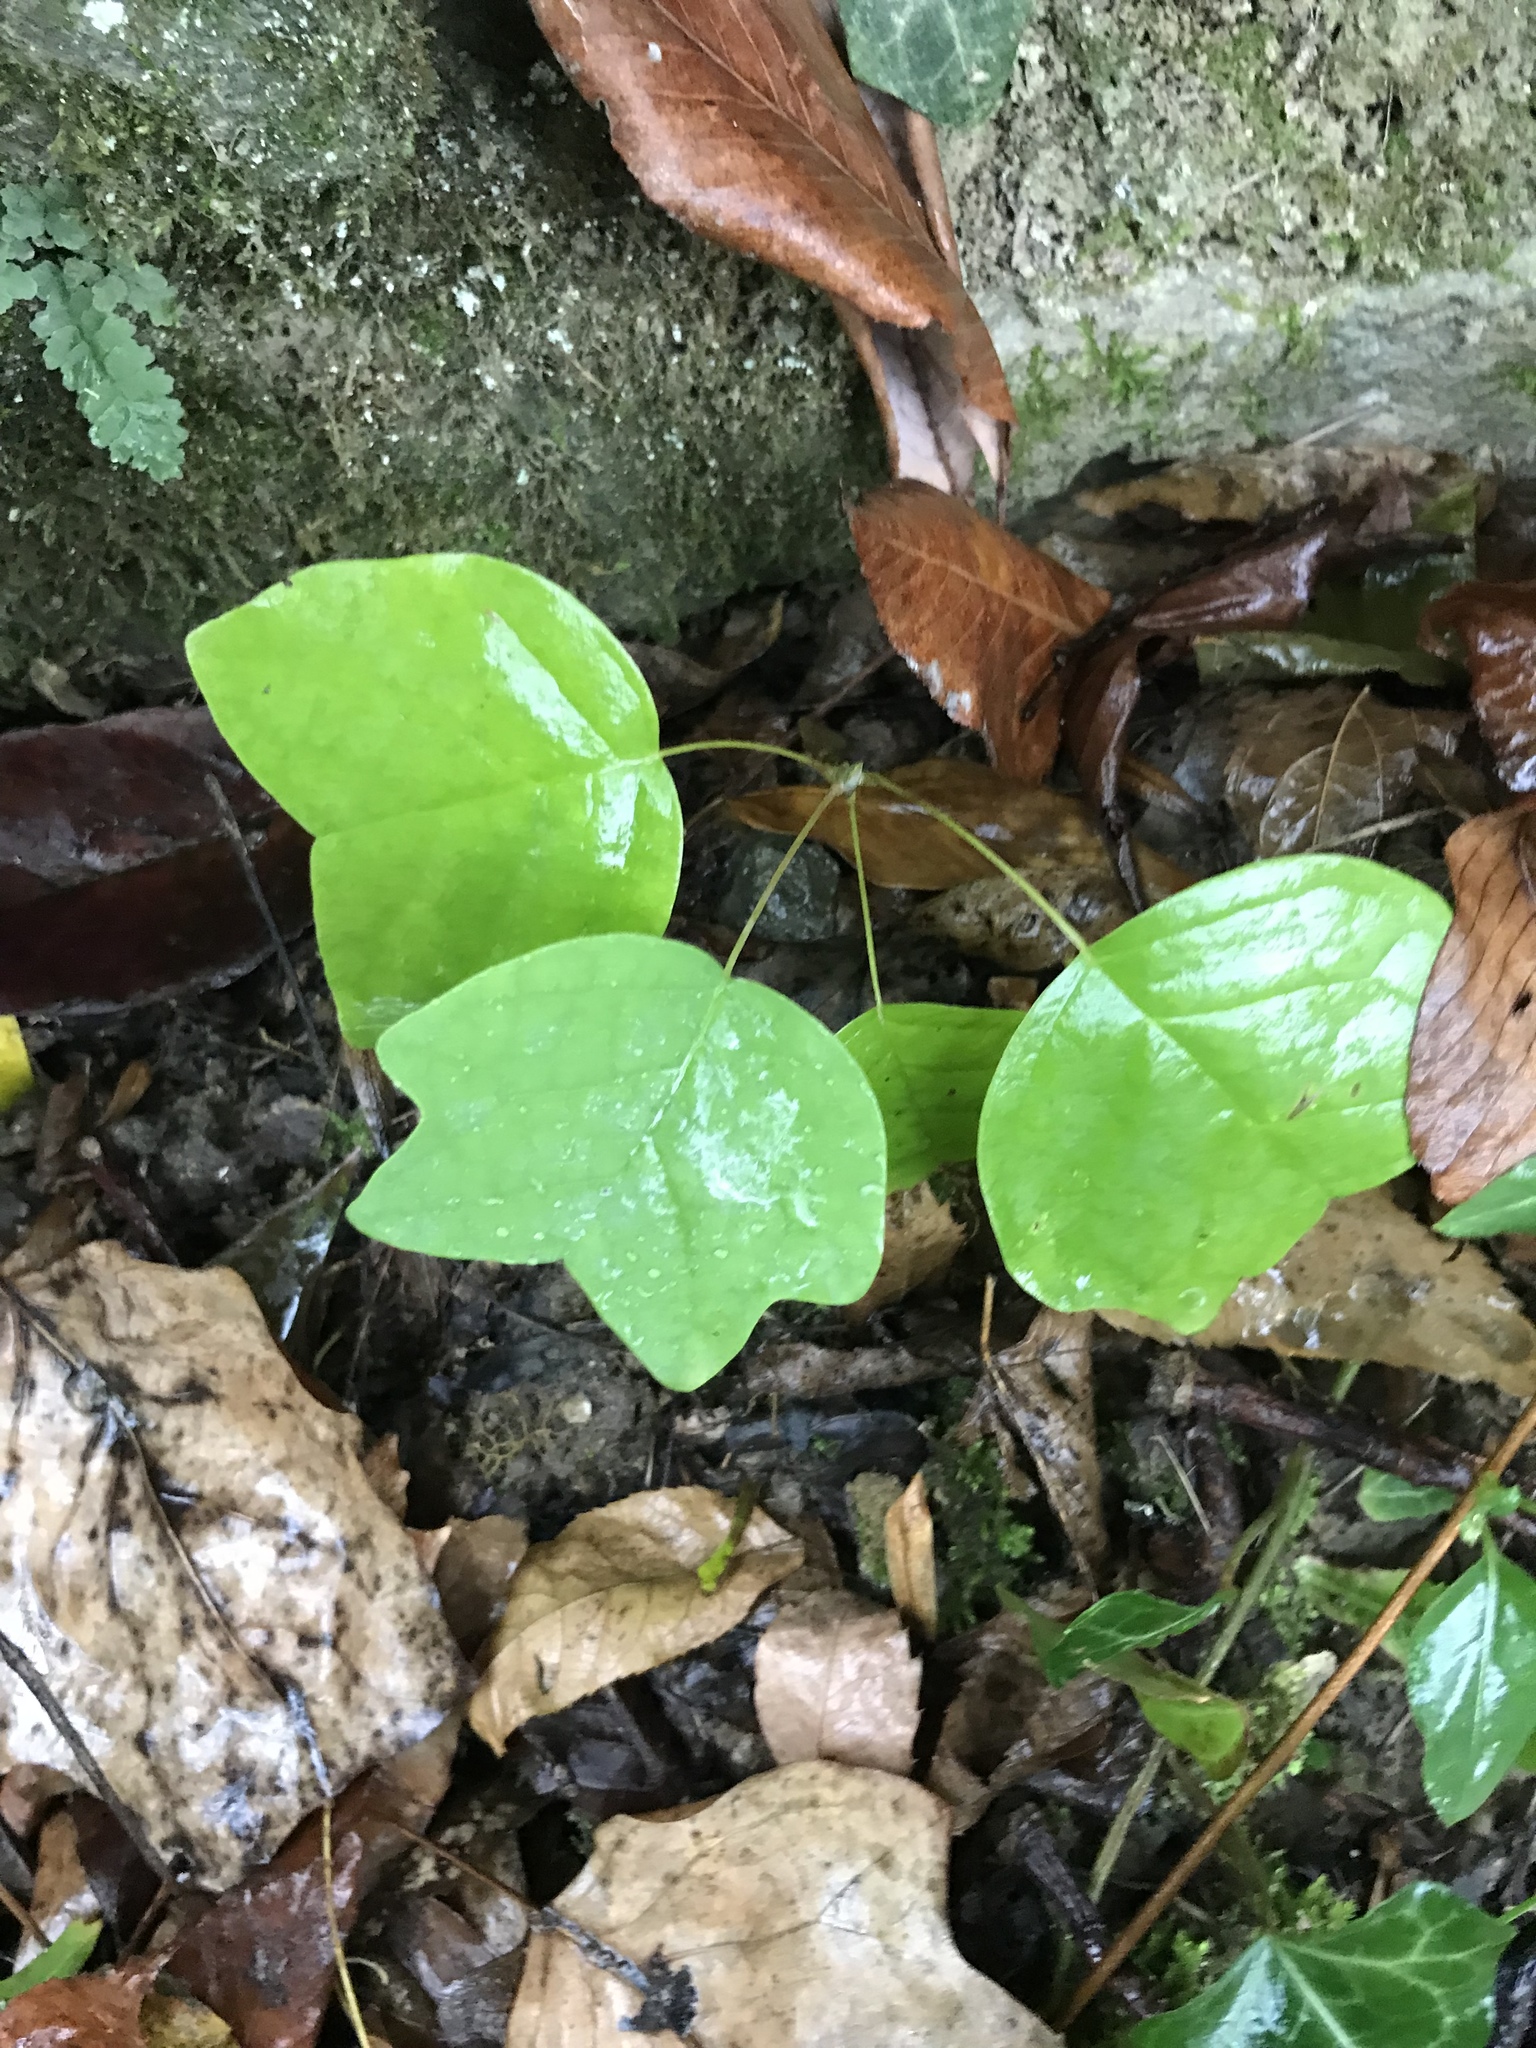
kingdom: Plantae
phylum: Tracheophyta
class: Magnoliopsida
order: Magnoliales
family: Magnoliaceae
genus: Liriodendron
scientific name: Liriodendron tulipifera
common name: Tulip tree
